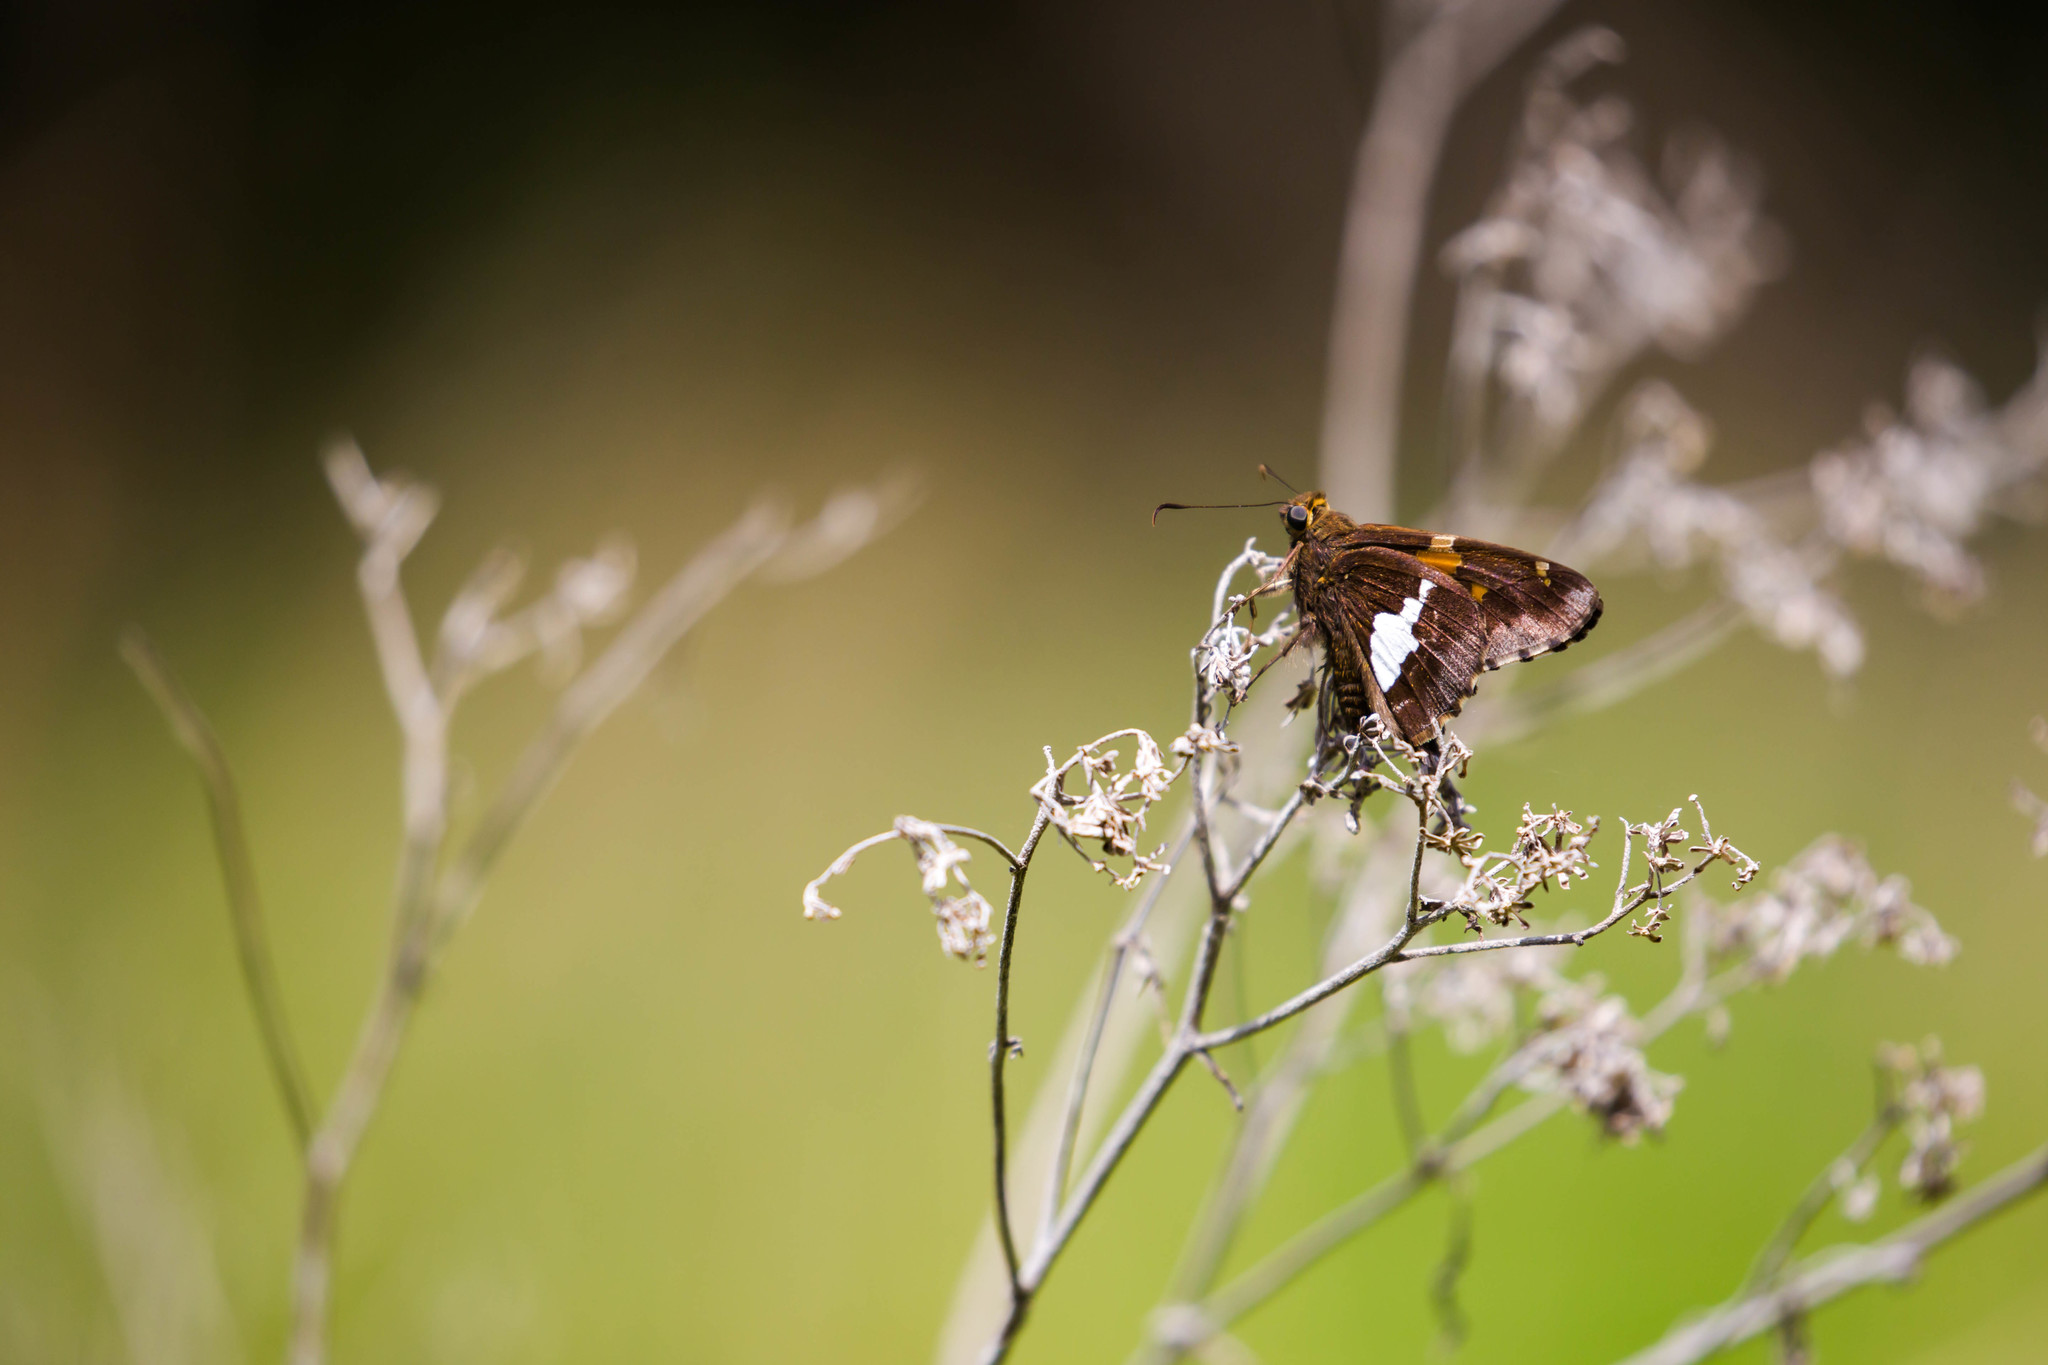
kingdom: Animalia
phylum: Arthropoda
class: Insecta
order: Lepidoptera
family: Hesperiidae
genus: Epargyreus
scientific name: Epargyreus clarus
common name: Silver-spotted skipper
